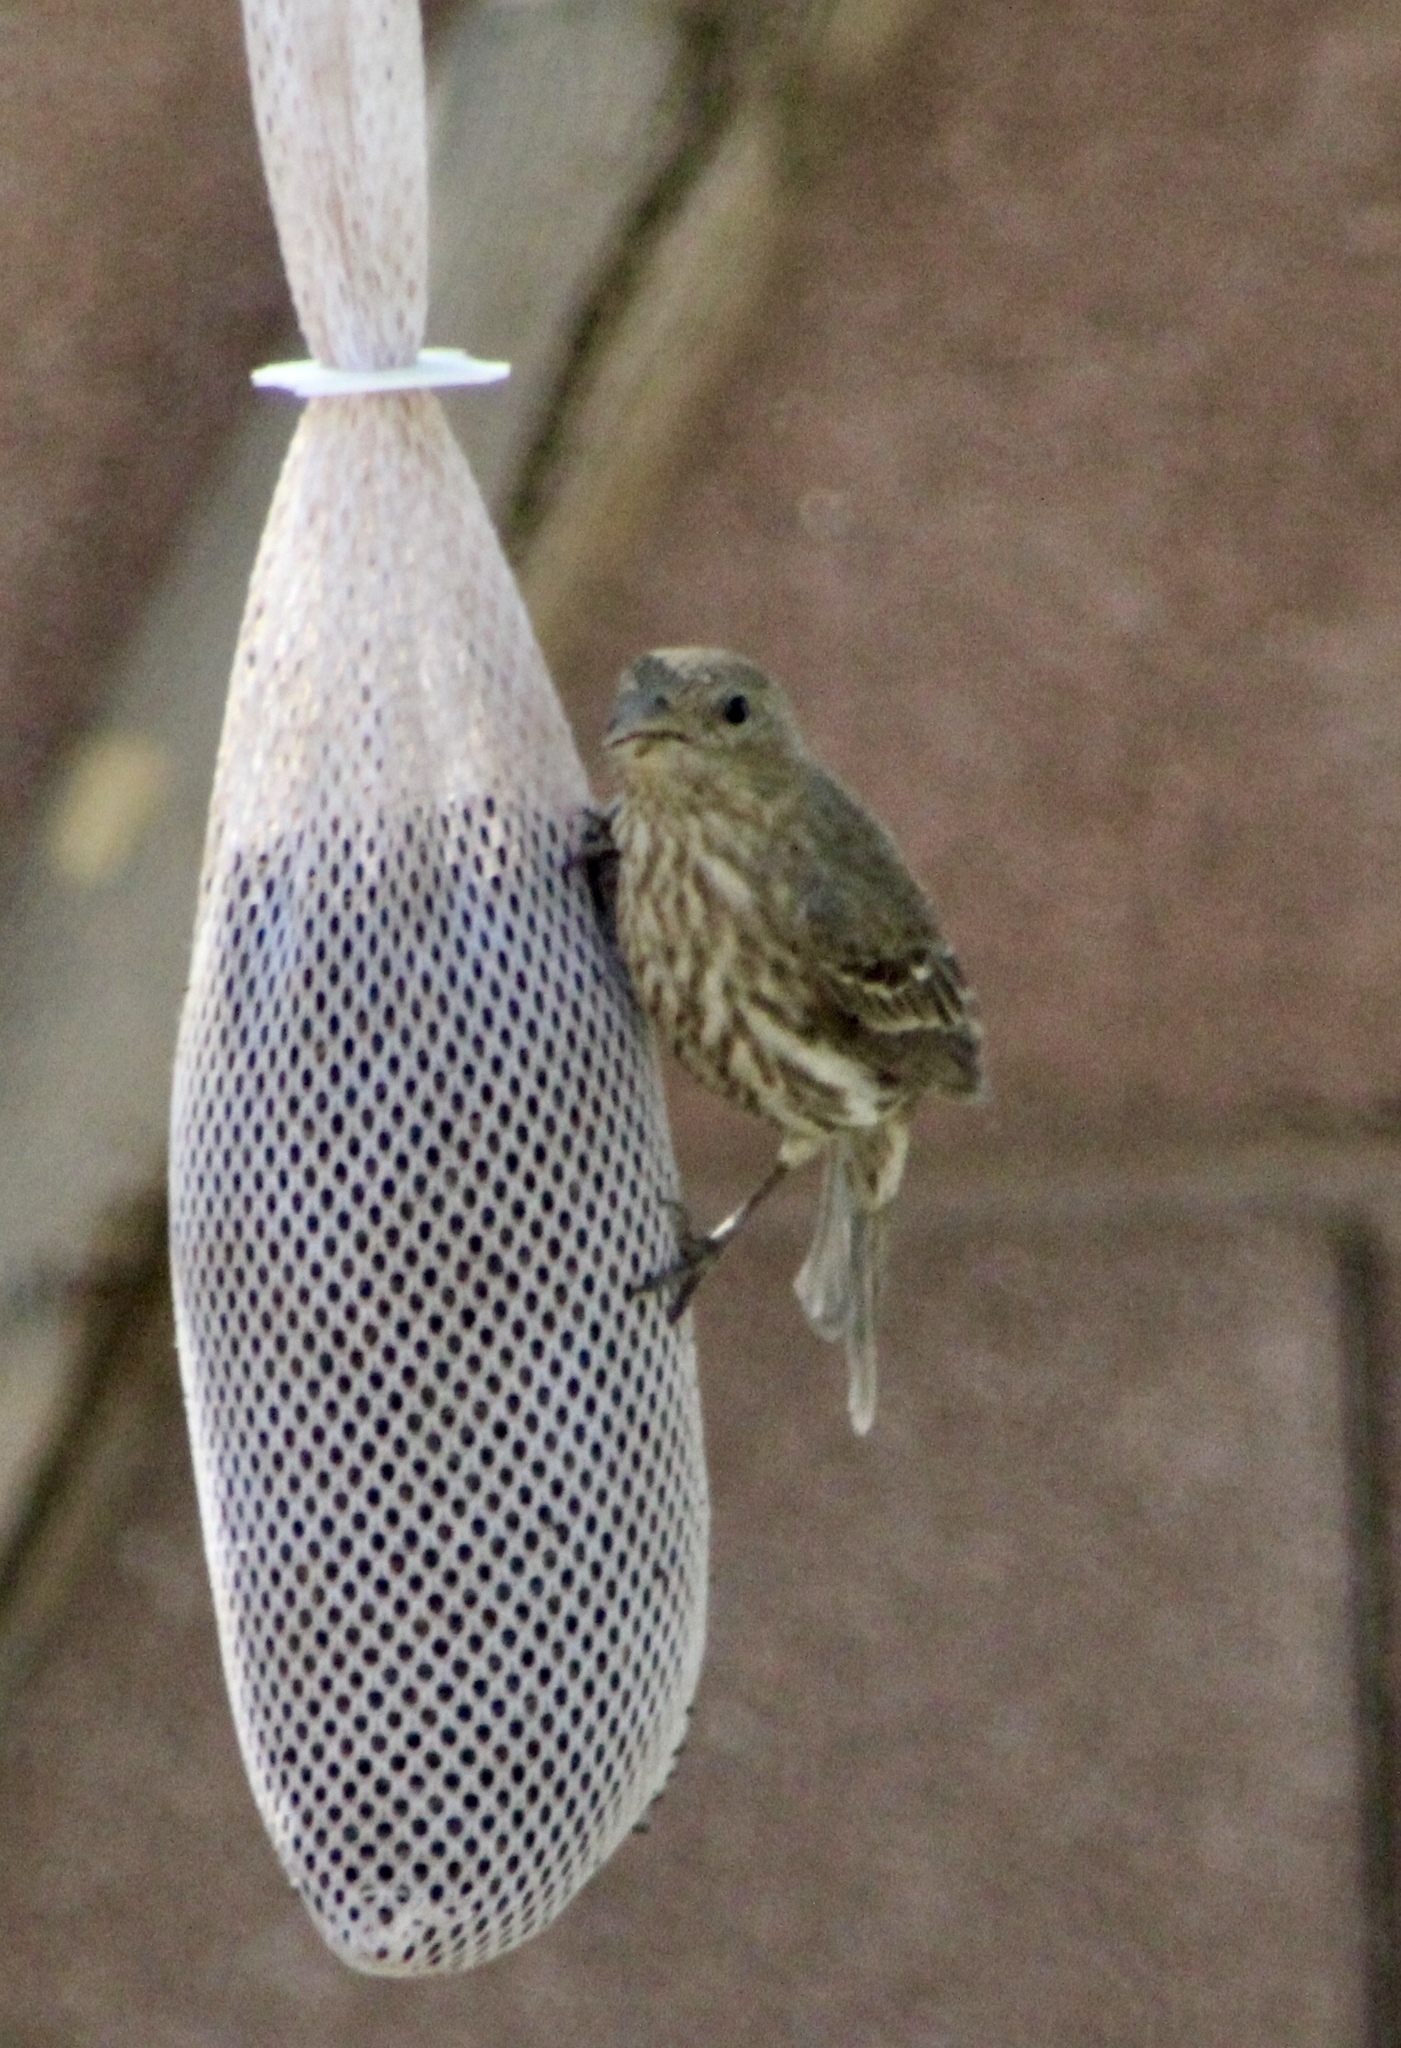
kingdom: Animalia
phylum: Chordata
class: Aves
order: Passeriformes
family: Fringillidae
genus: Haemorhous
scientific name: Haemorhous mexicanus
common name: House finch
